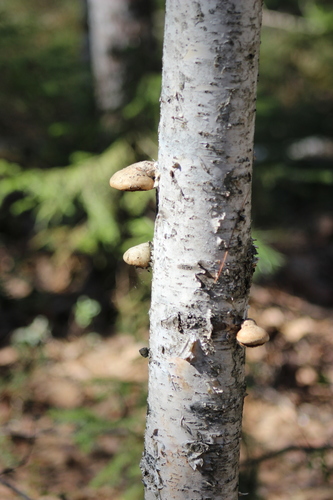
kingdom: Fungi
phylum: Basidiomycota
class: Agaricomycetes
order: Polyporales
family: Fomitopsidaceae
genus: Fomitopsis
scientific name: Fomitopsis betulina
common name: Birch polypore
